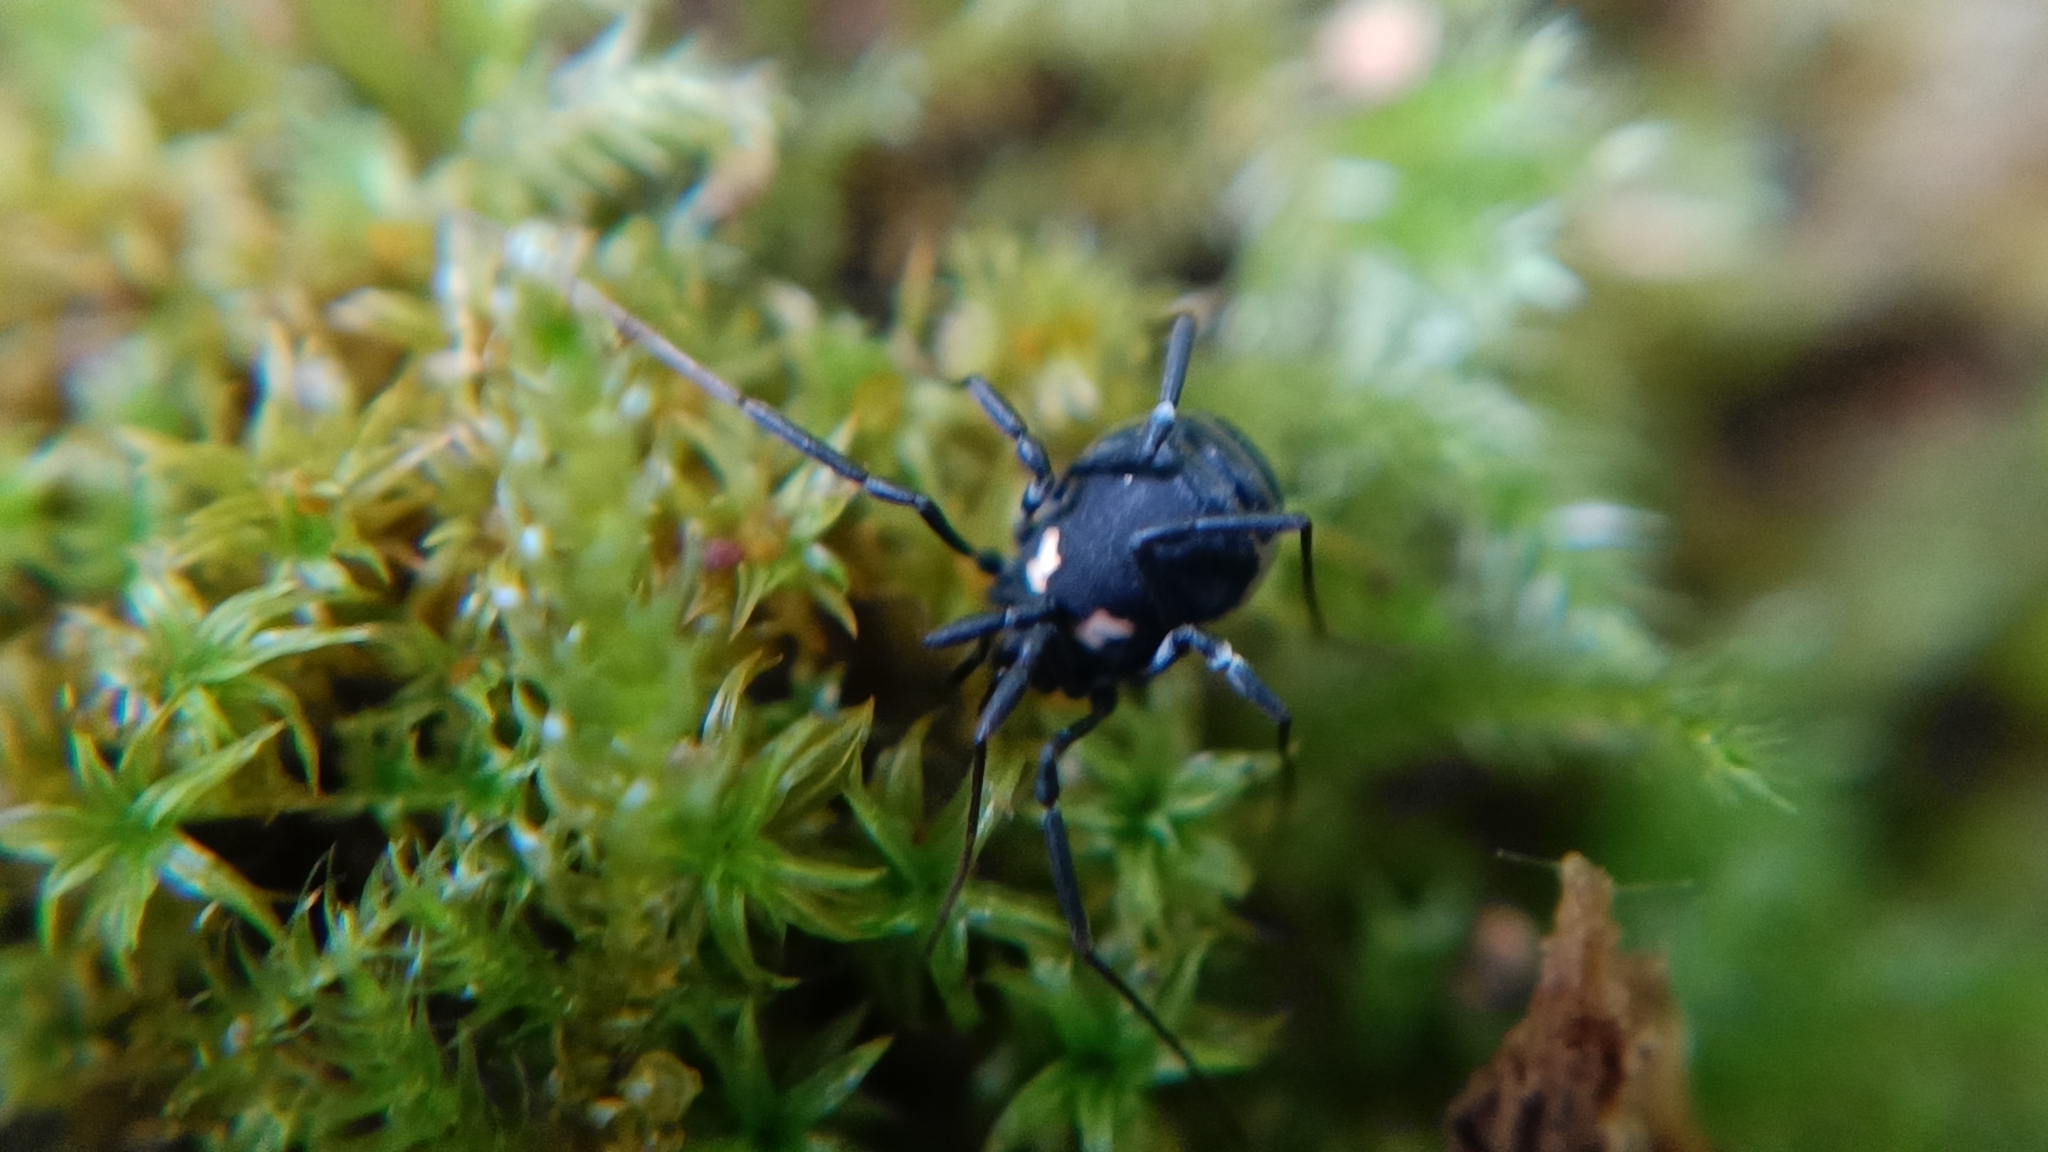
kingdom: Animalia
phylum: Arthropoda
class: Arachnida
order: Opiliones
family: Nemastomatidae
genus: Nemastoma
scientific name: Nemastoma bimaculatum
